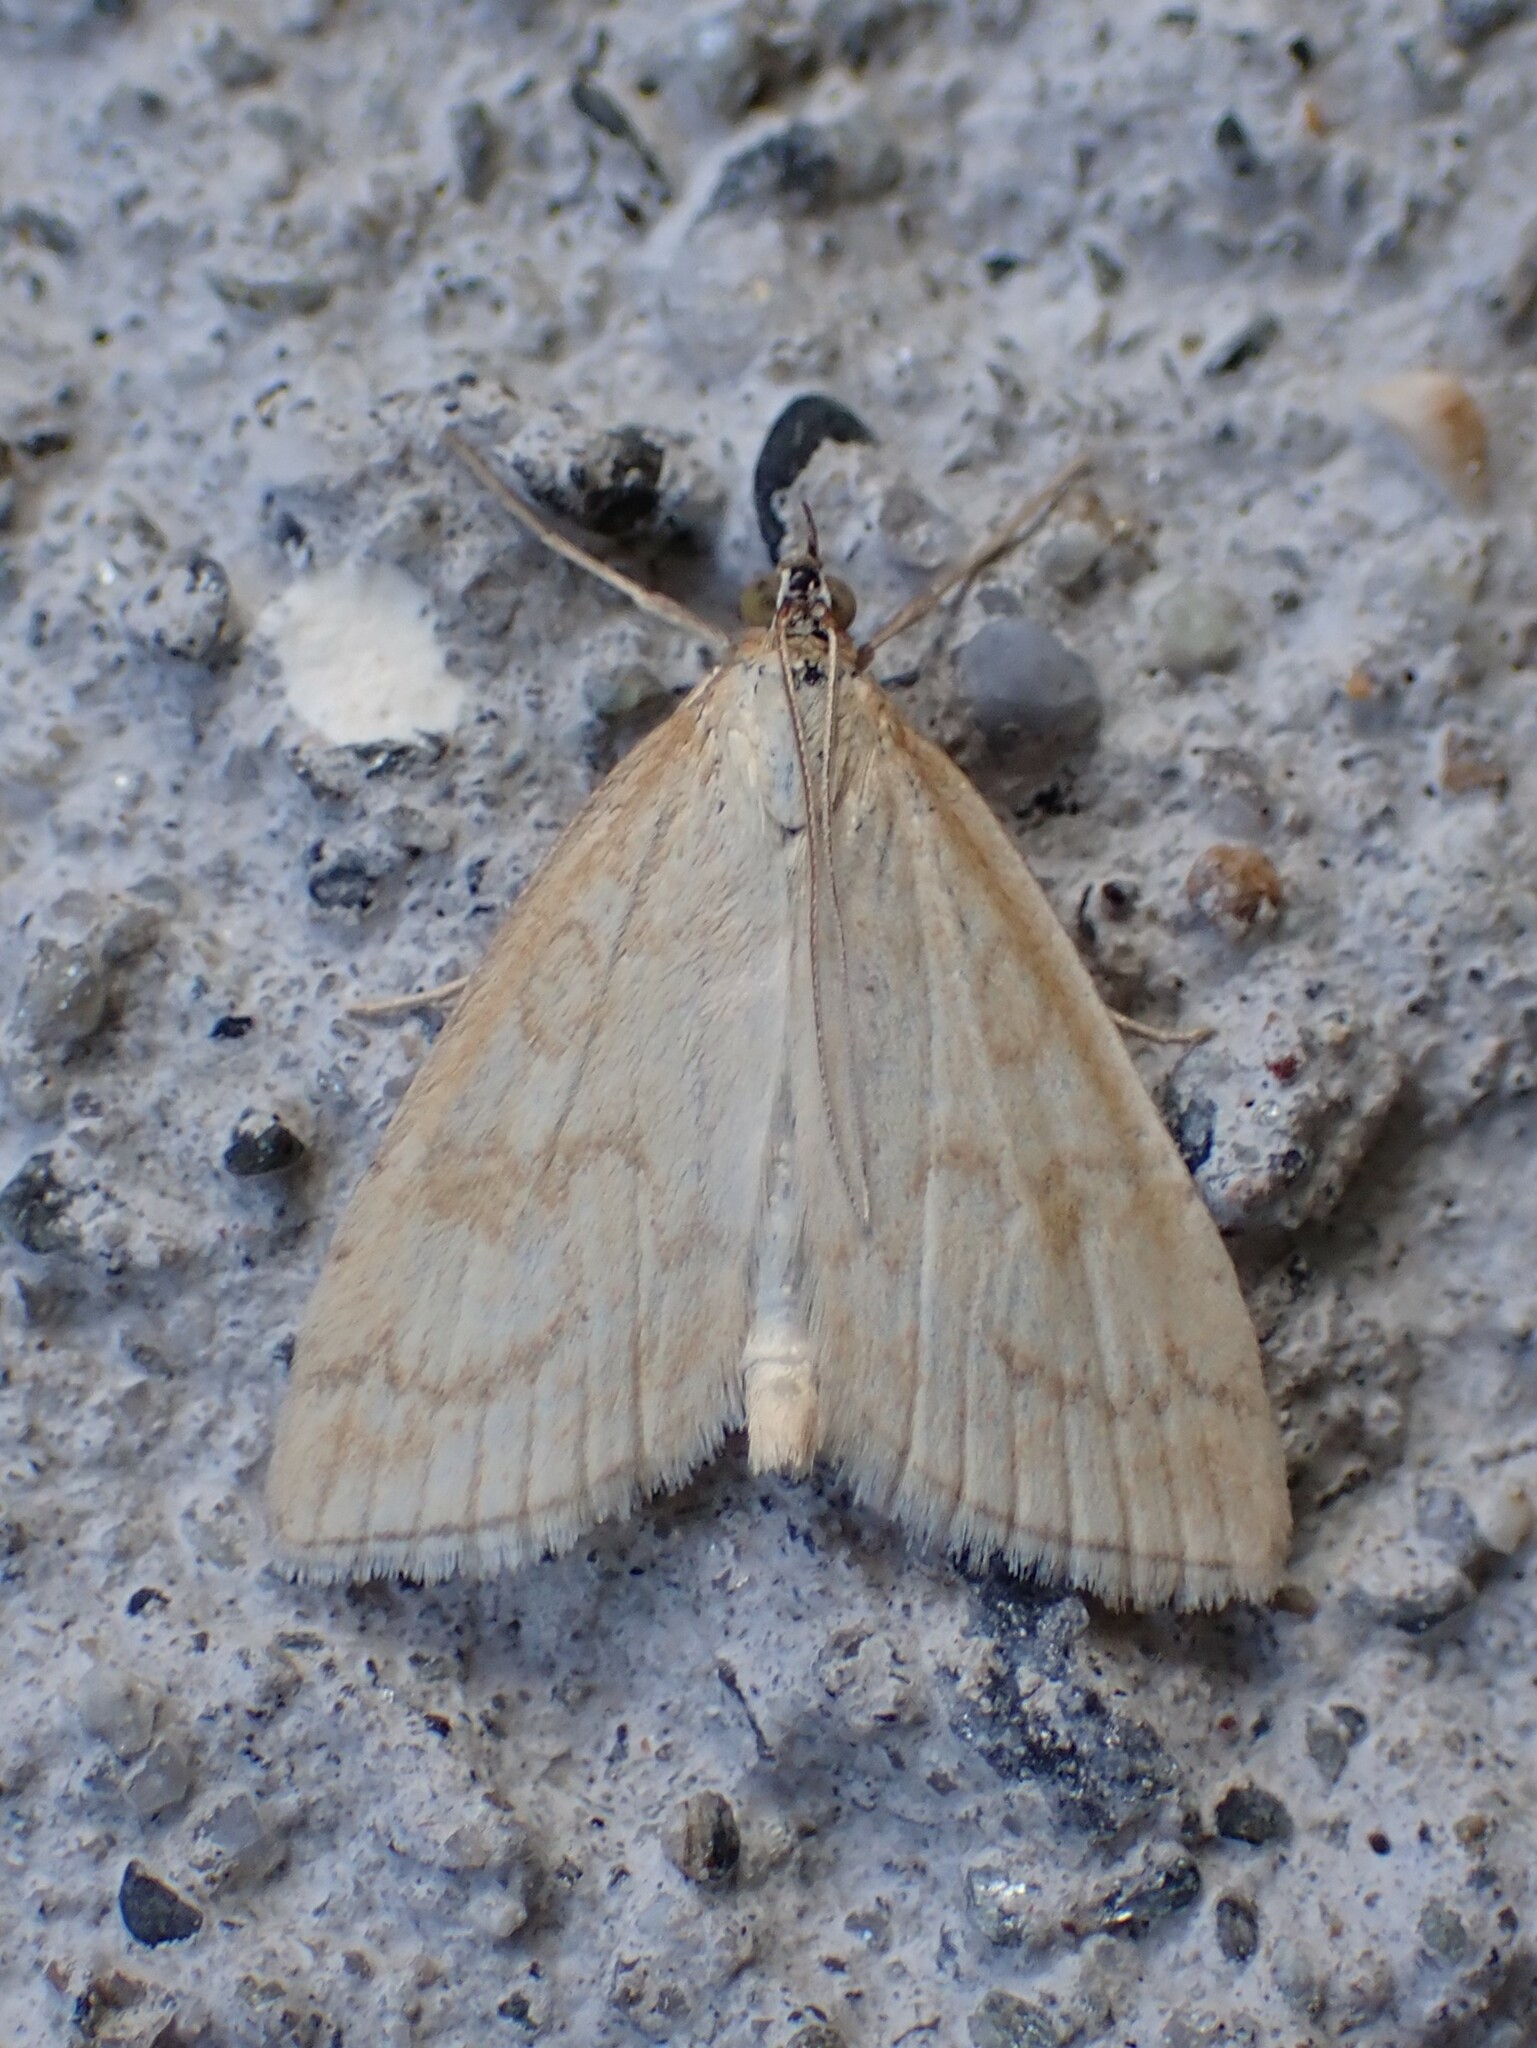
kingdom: Animalia
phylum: Arthropoda
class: Insecta
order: Lepidoptera
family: Crambidae
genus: Udea
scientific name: Udea lutealis
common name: Pale straw pearl
